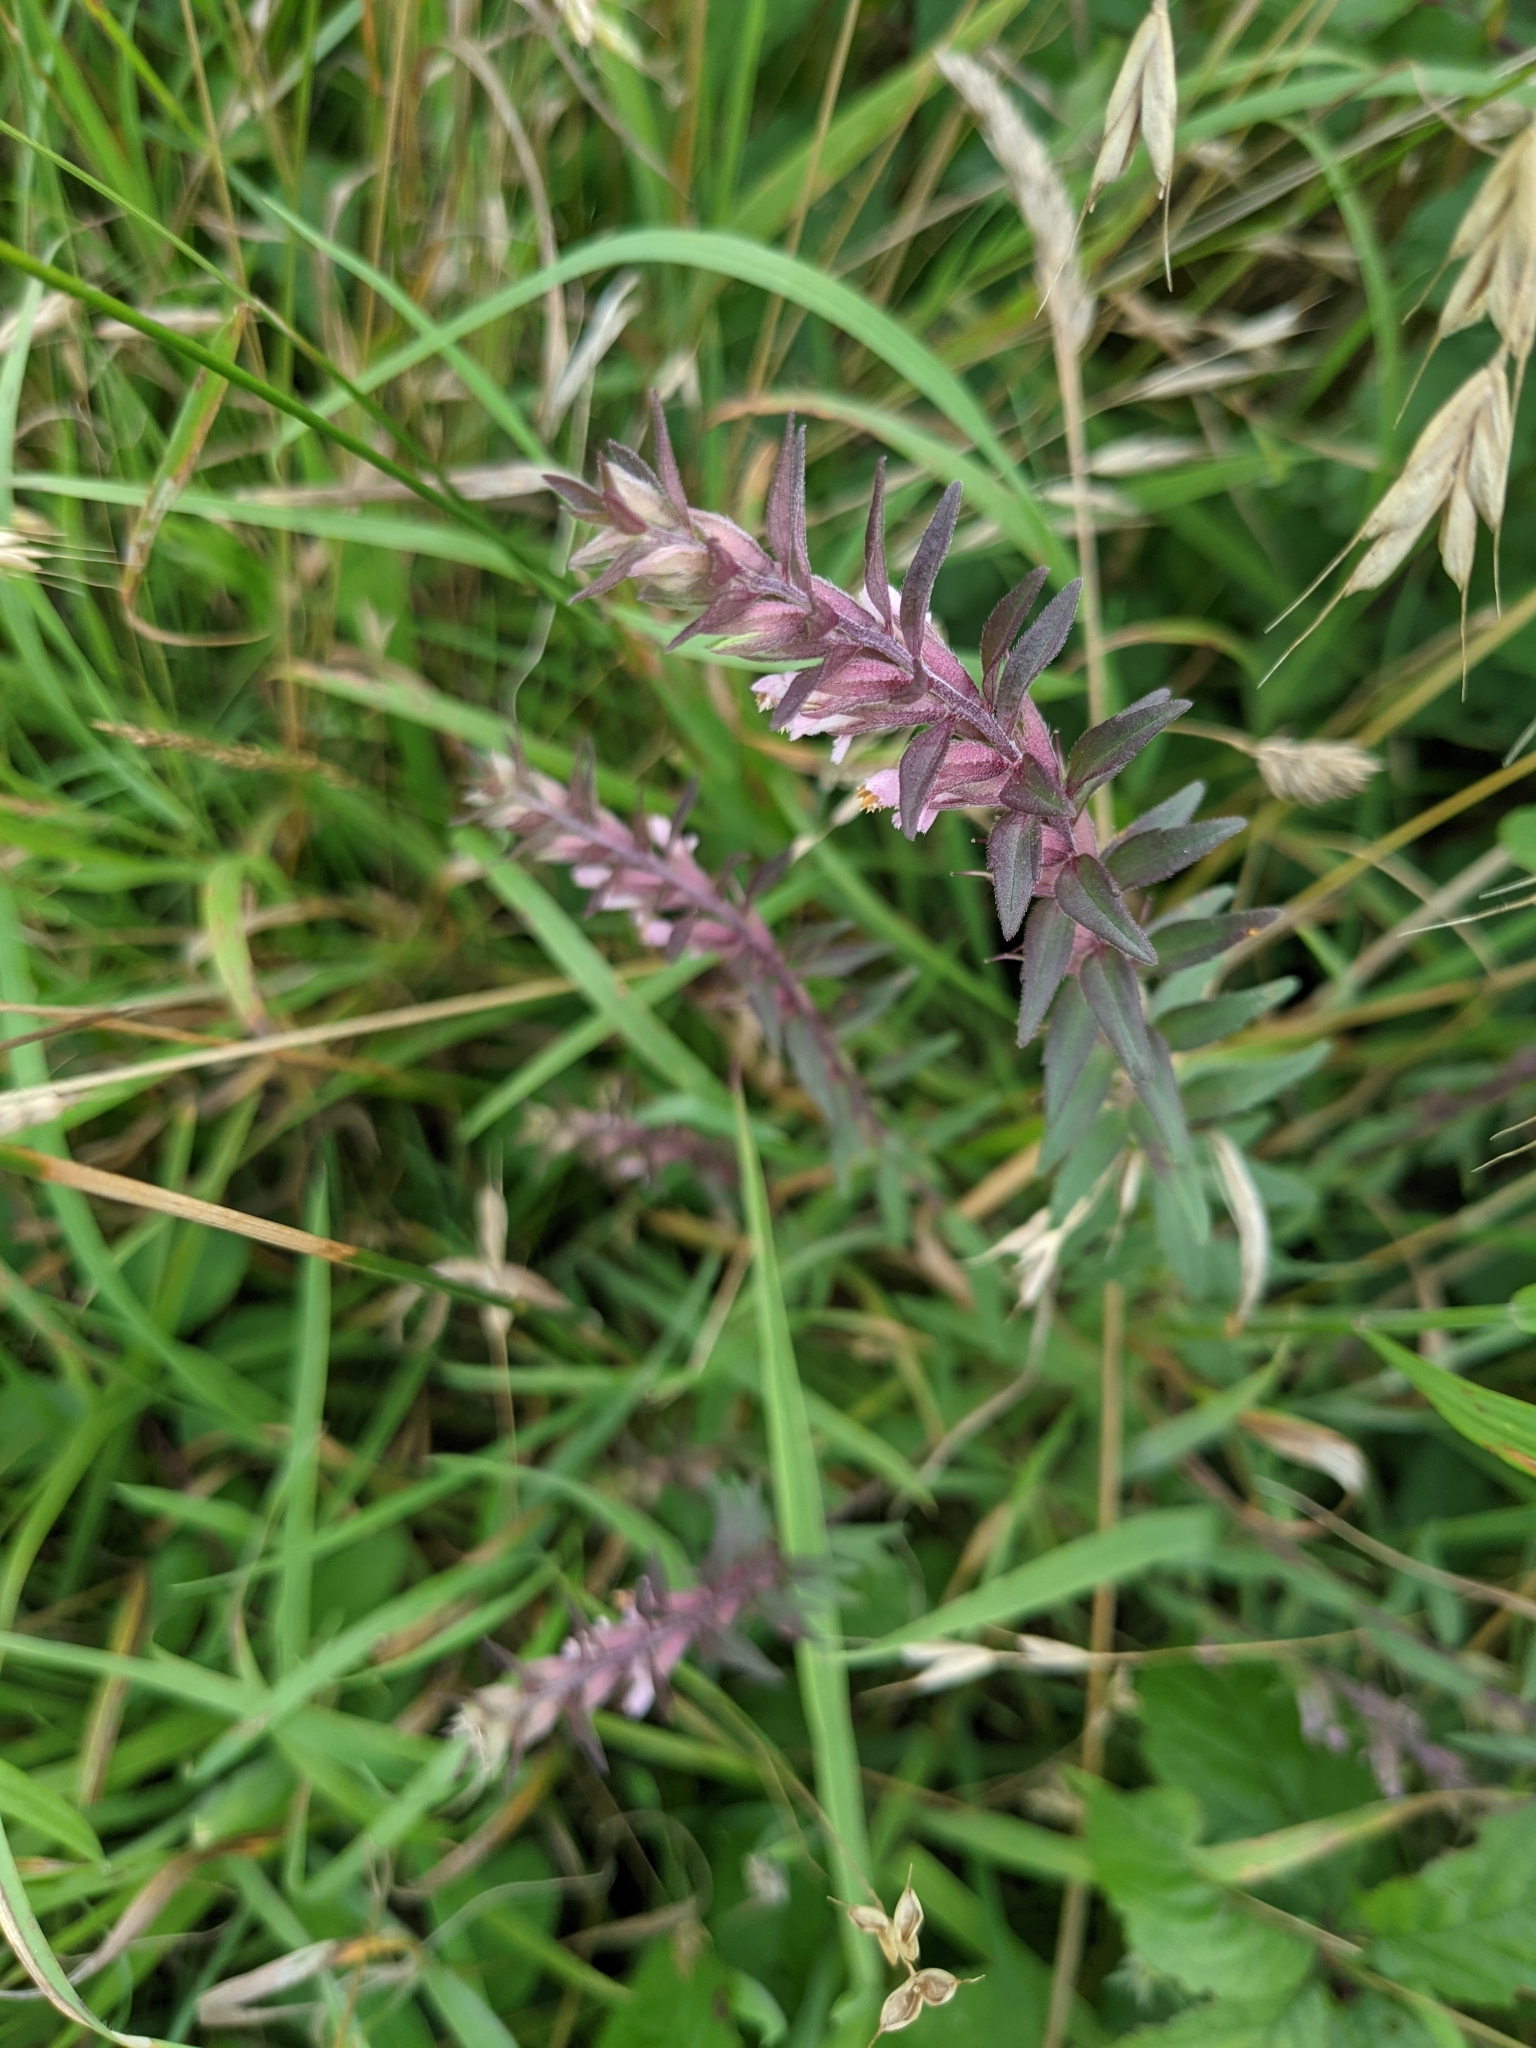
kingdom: Plantae
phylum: Tracheophyta
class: Magnoliopsida
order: Lamiales
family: Orobanchaceae
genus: Odontites
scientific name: Odontites vernus
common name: Red bartsia
